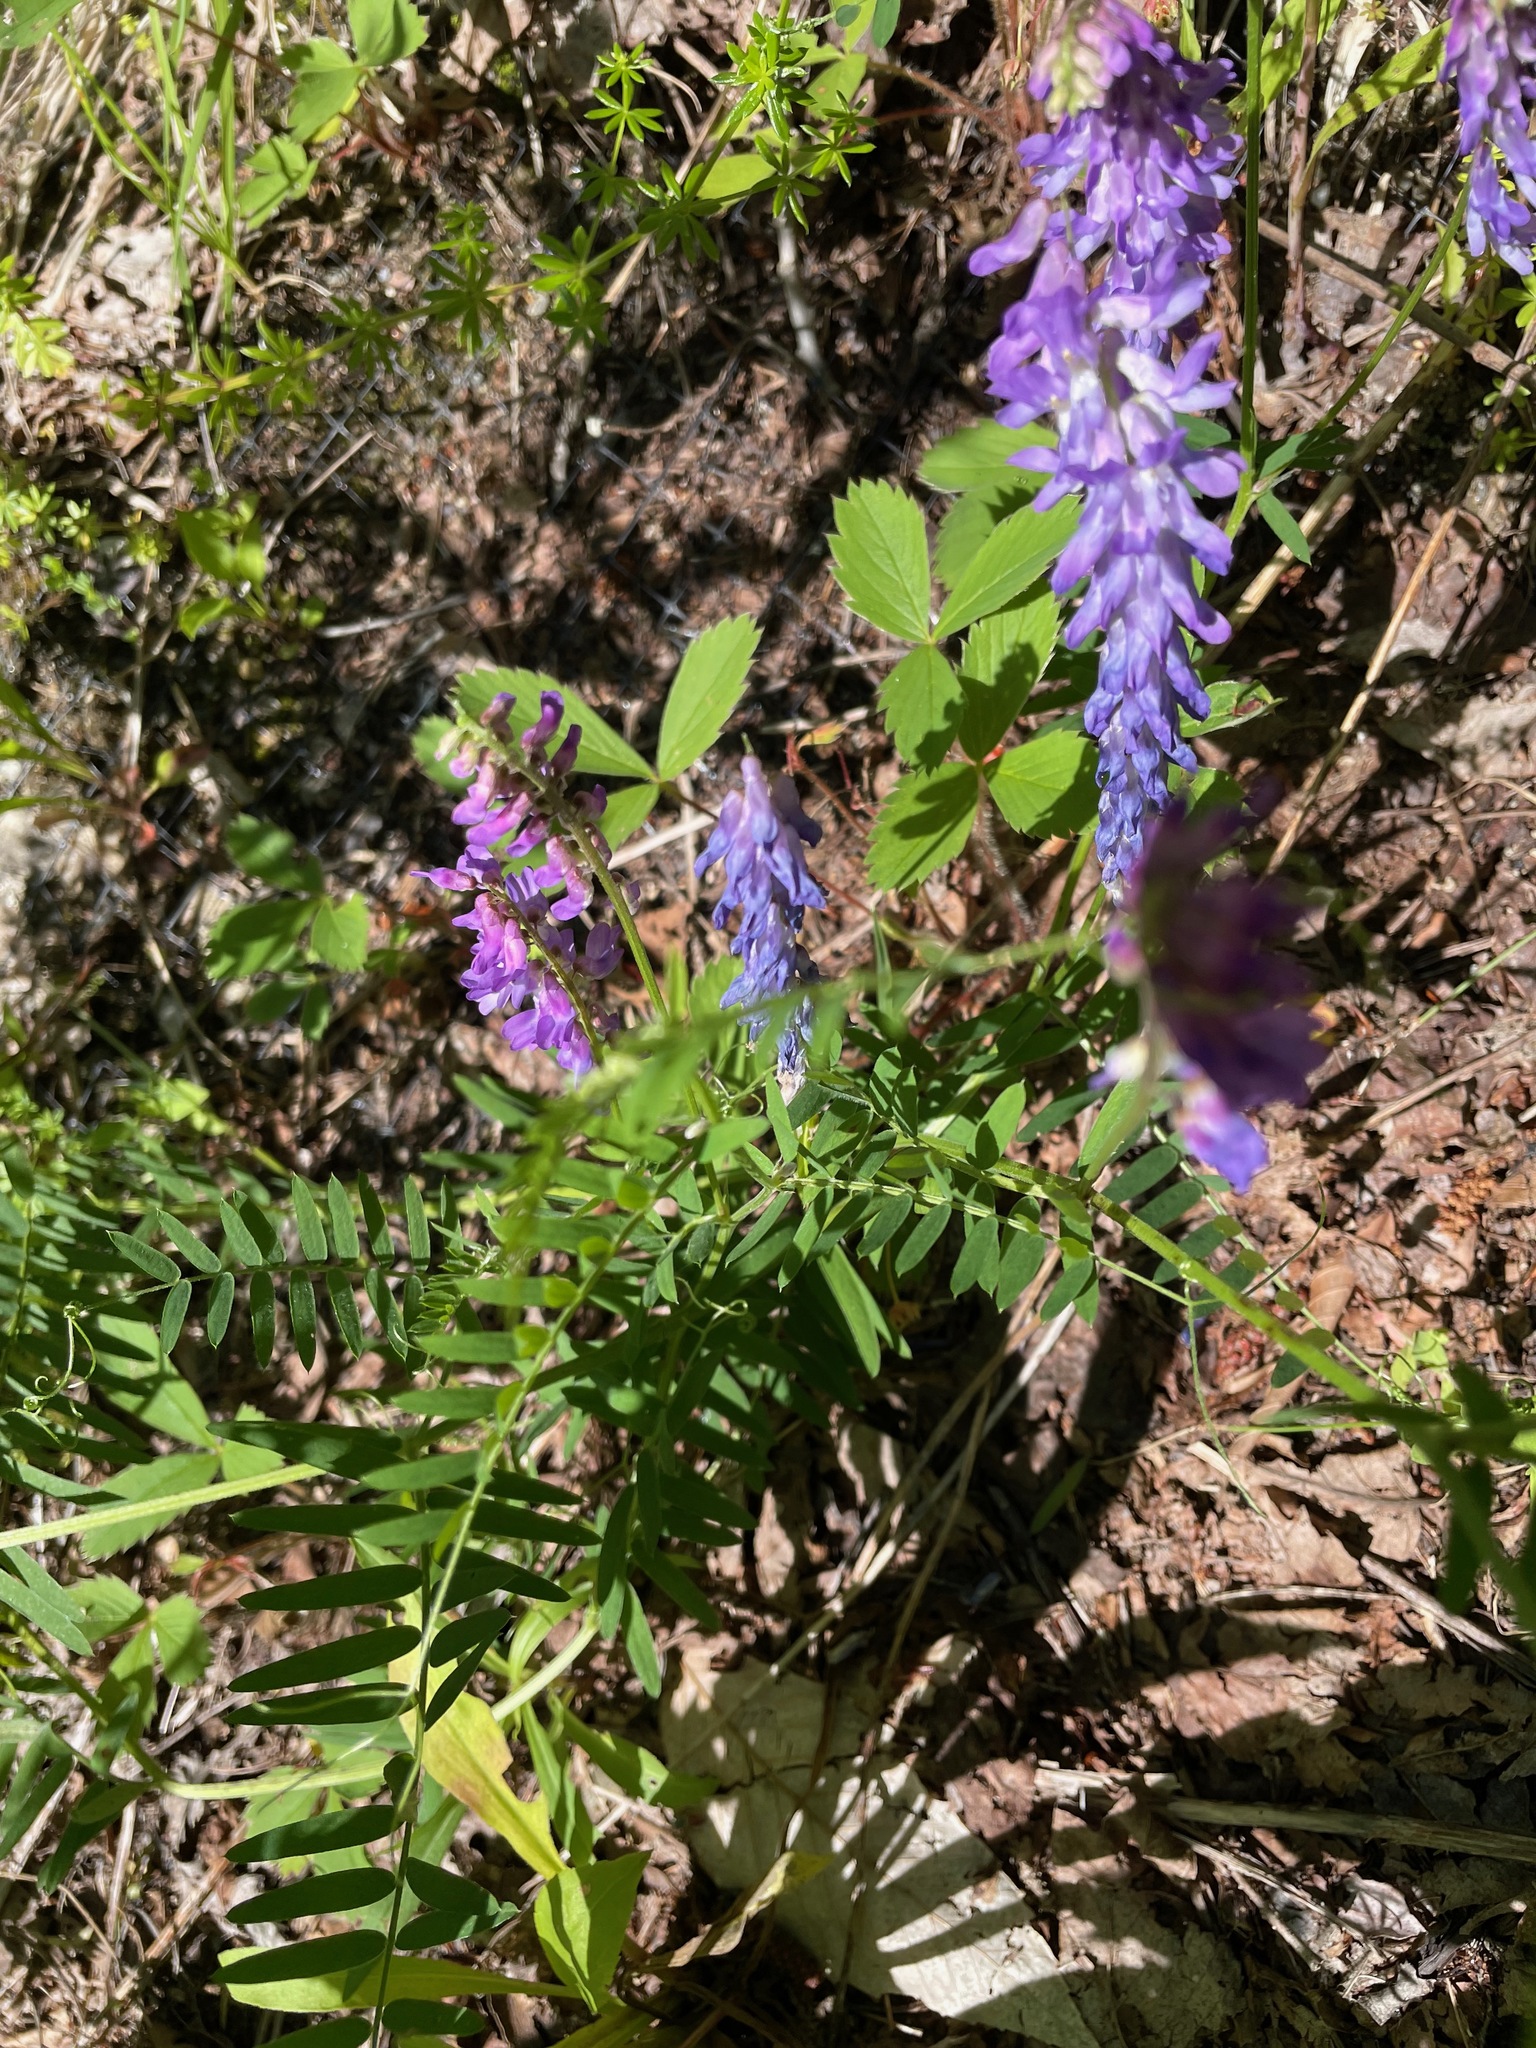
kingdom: Plantae
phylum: Tracheophyta
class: Magnoliopsida
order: Fabales
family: Fabaceae
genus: Vicia
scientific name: Vicia cracca
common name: Bird vetch
